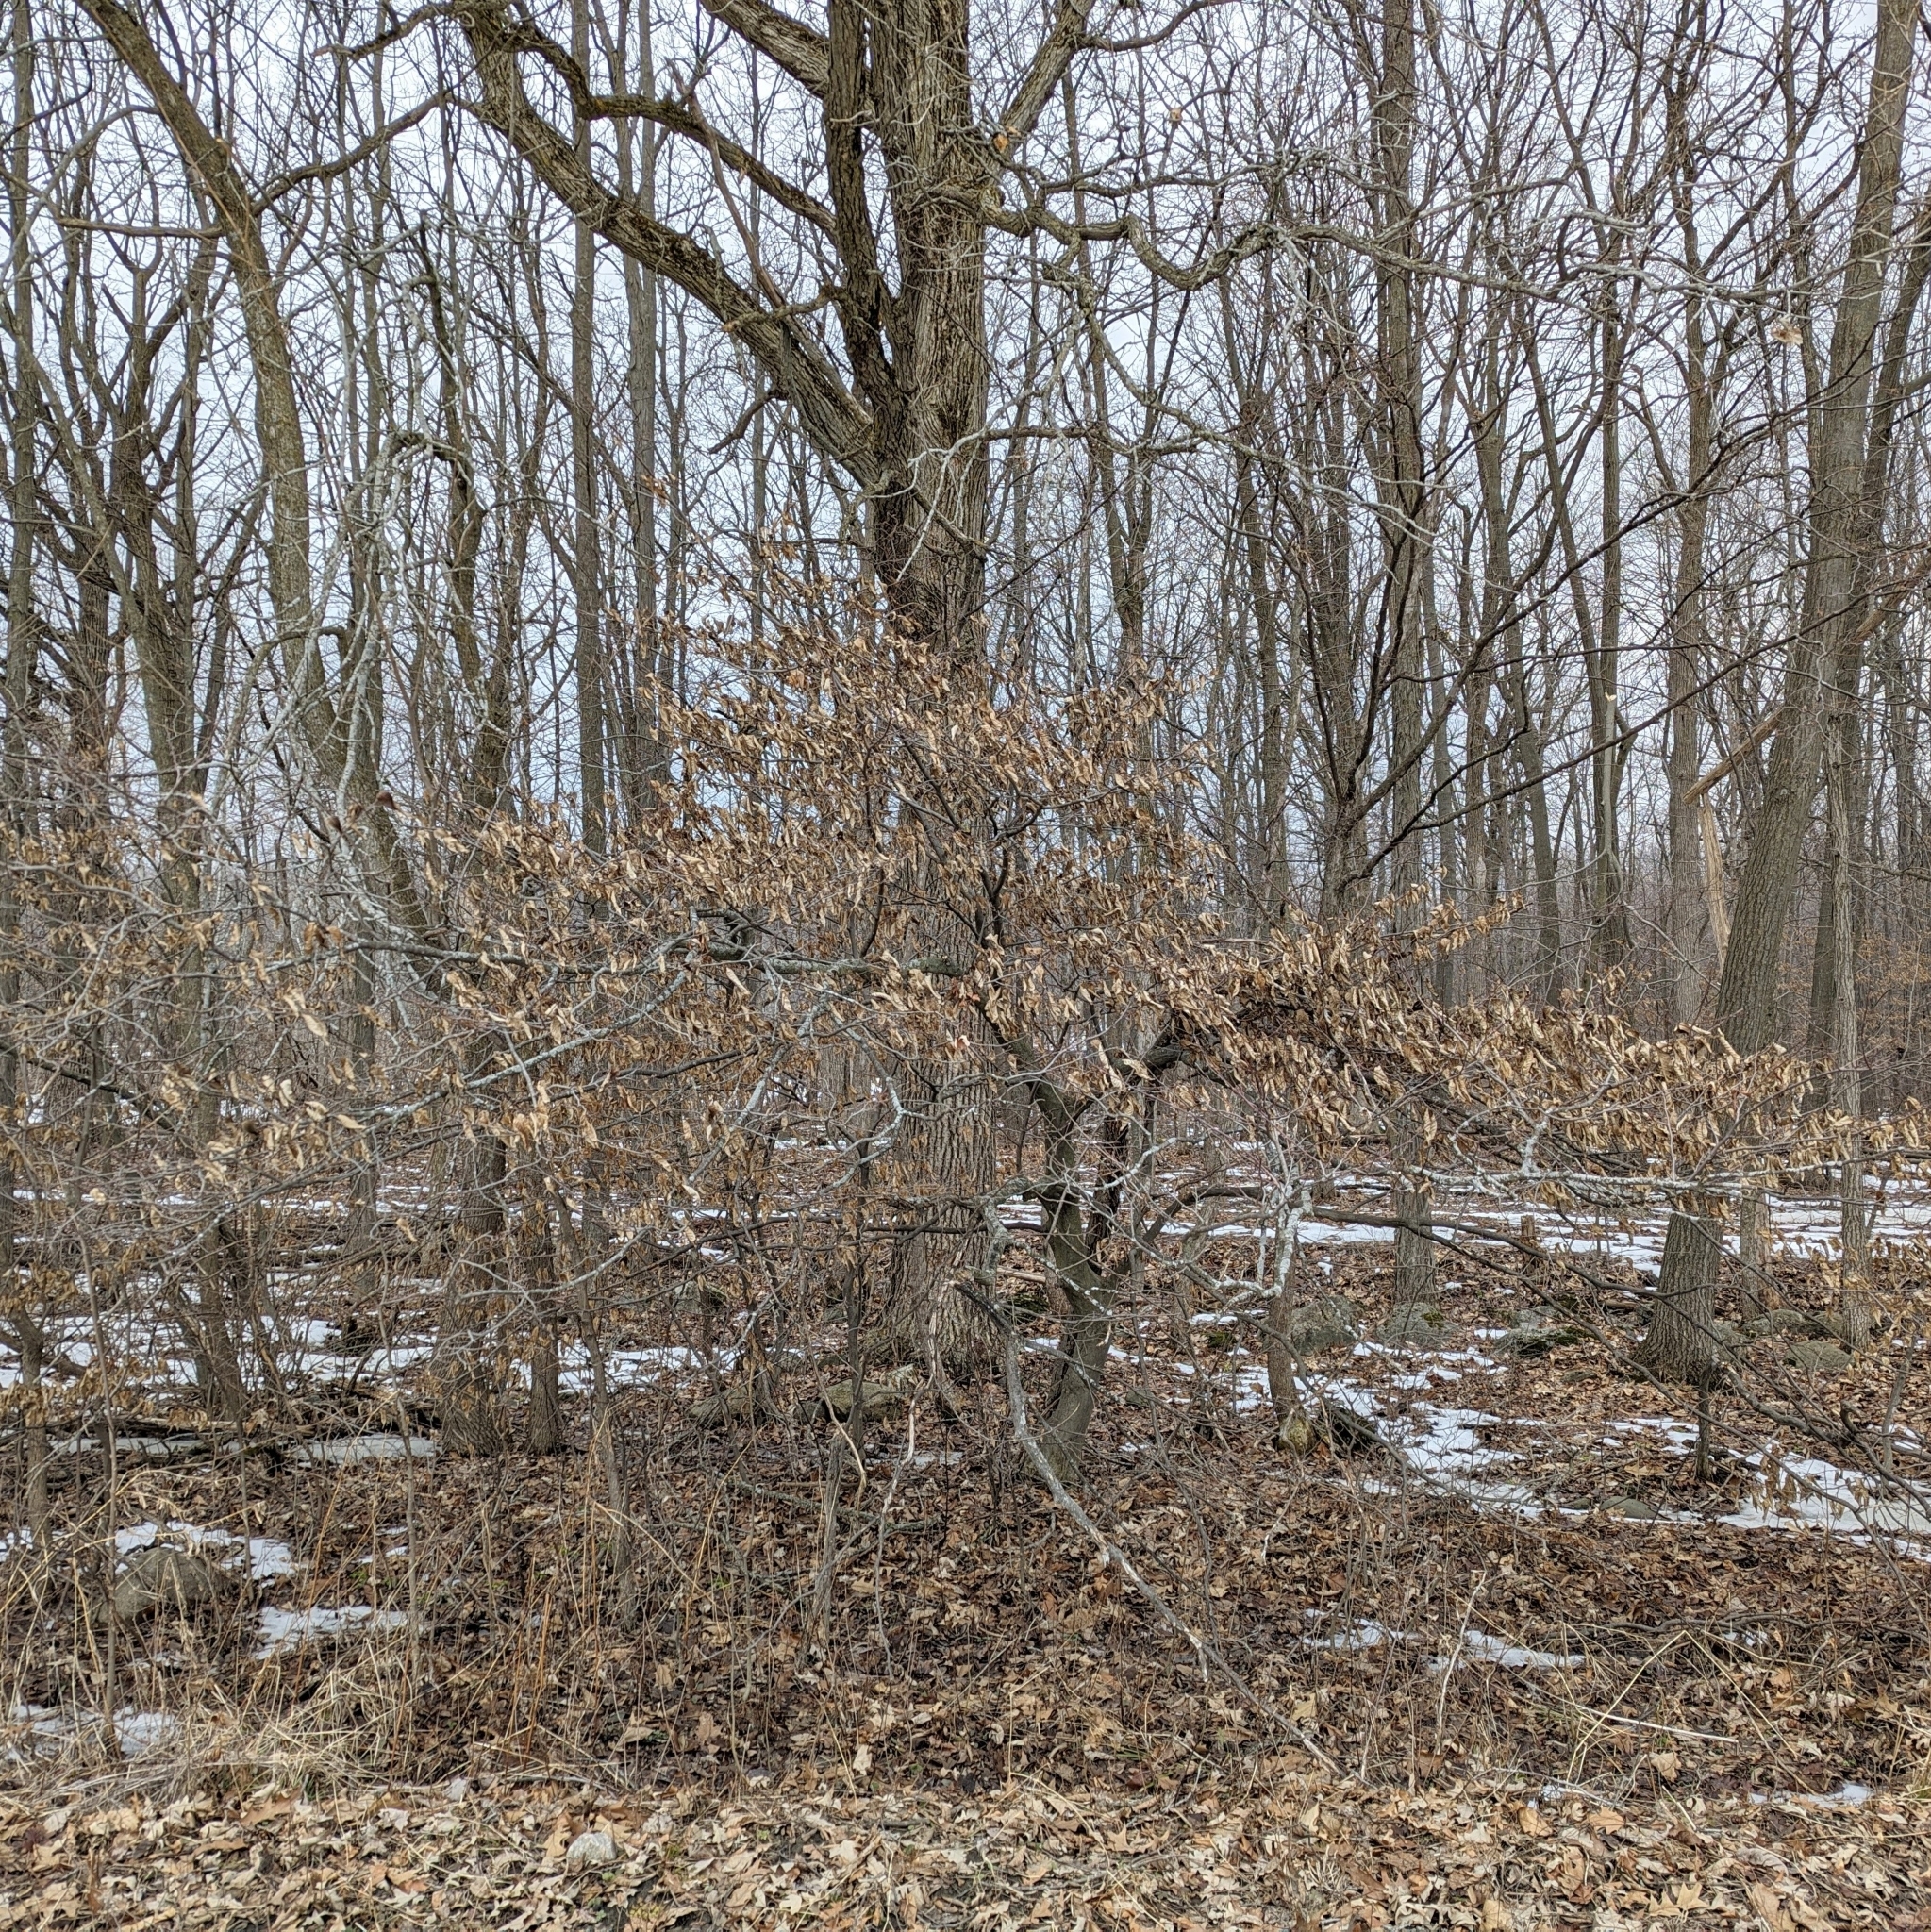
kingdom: Plantae
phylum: Tracheophyta
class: Magnoliopsida
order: Fagales
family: Betulaceae
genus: Carpinus
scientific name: Carpinus caroliniana
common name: American hornbeam
